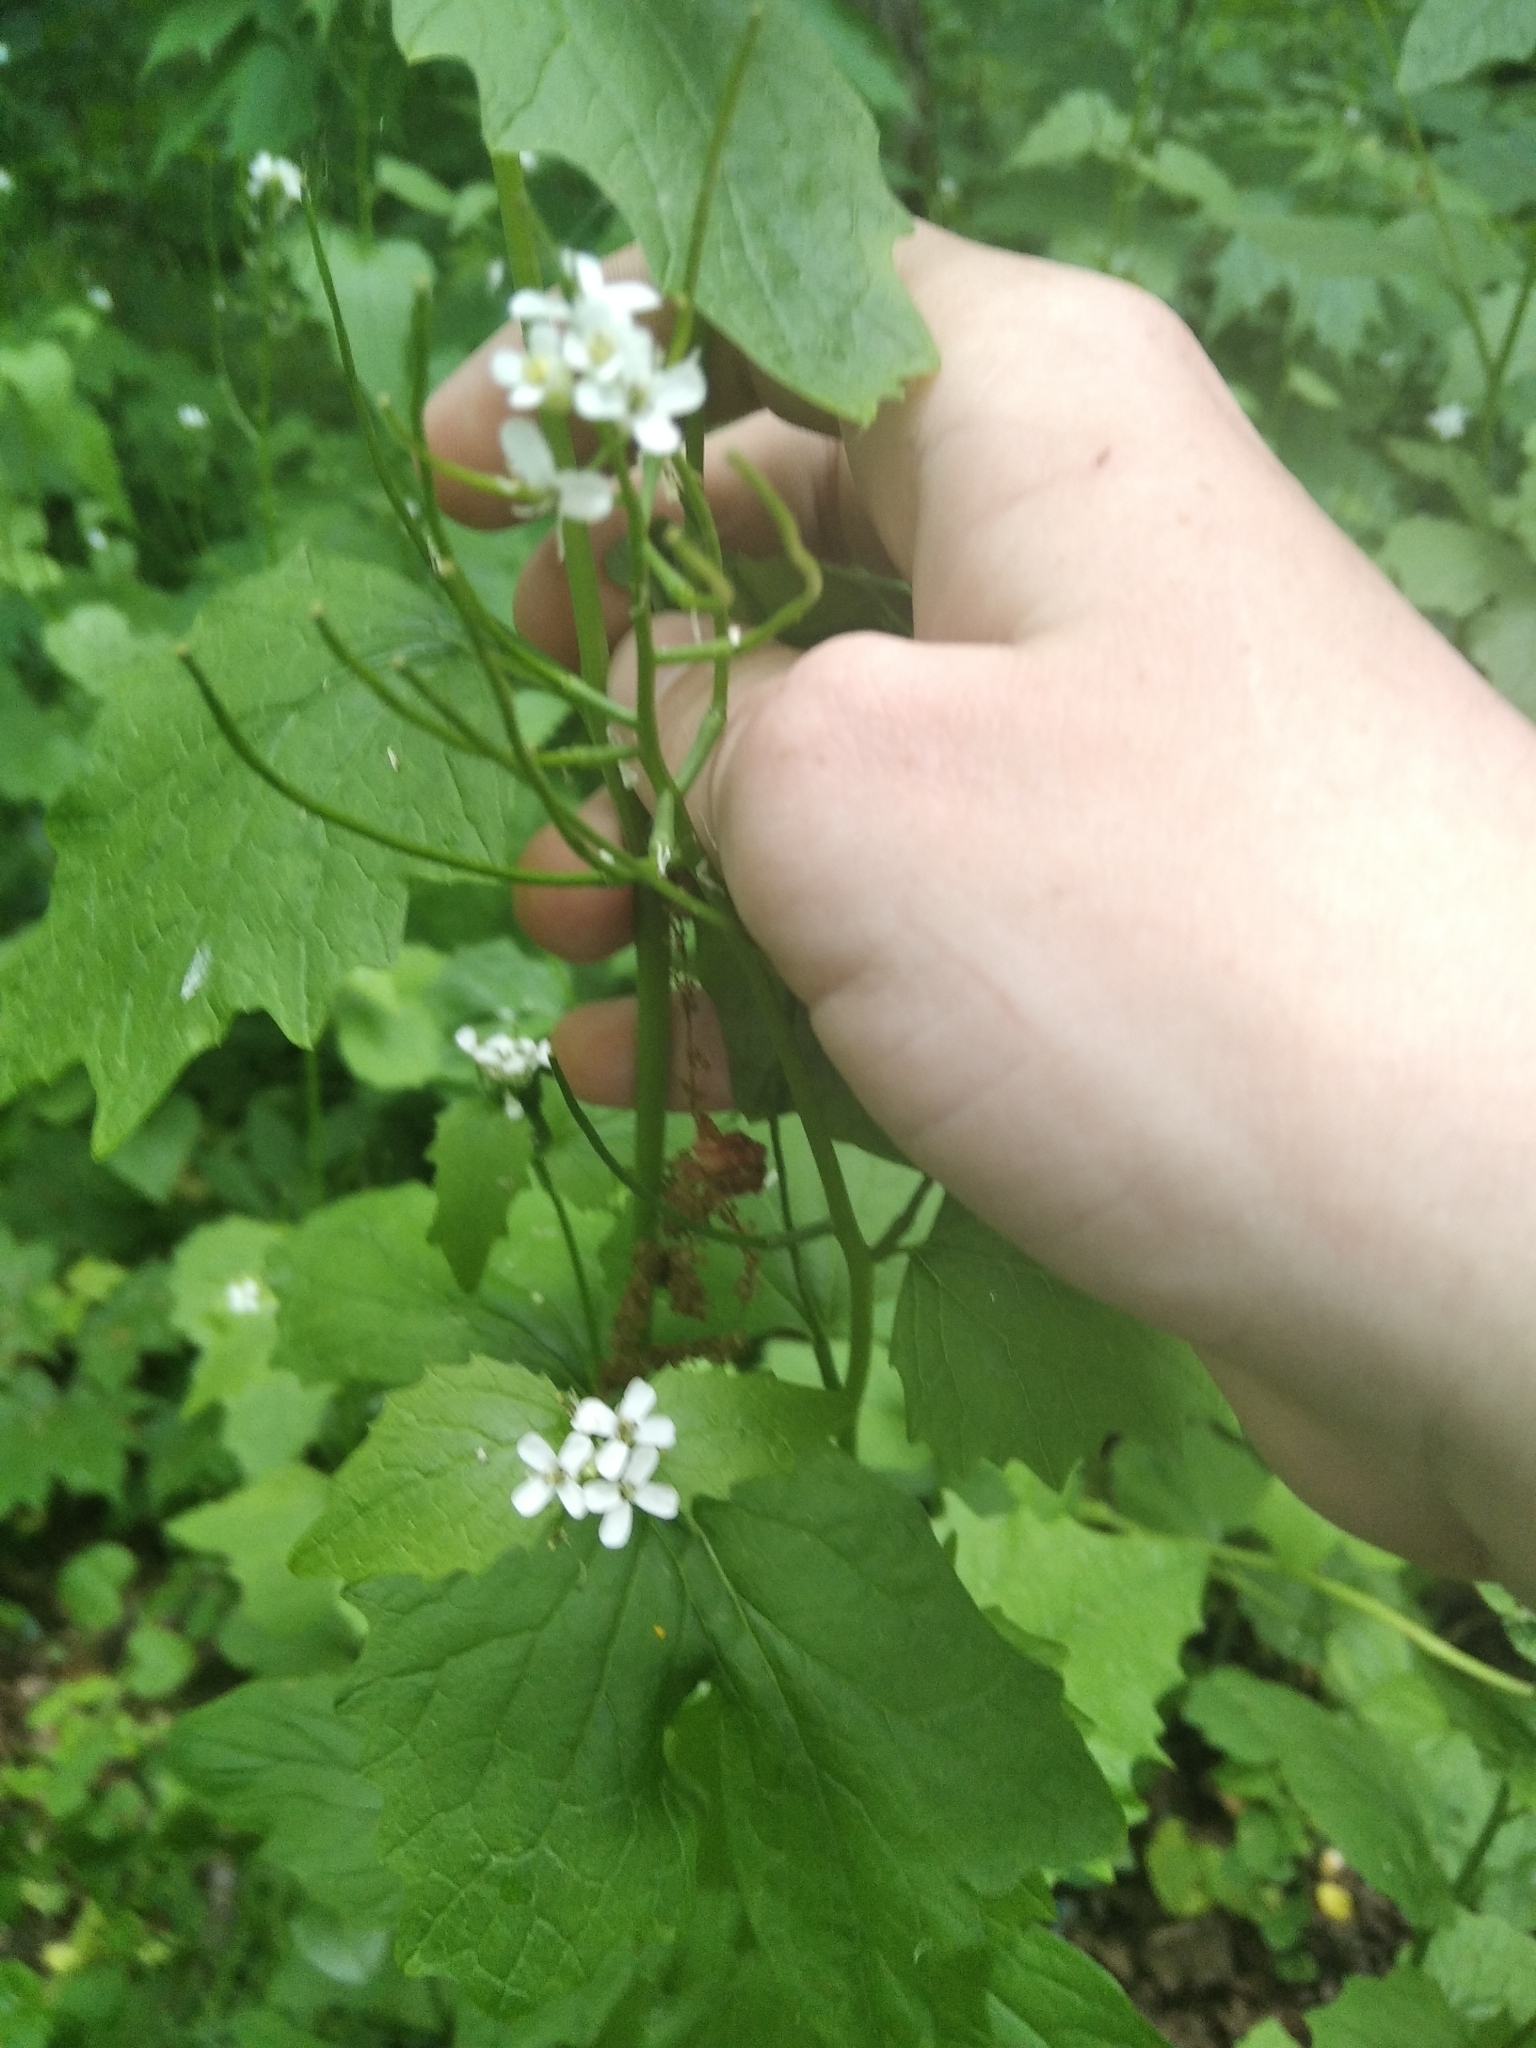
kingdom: Plantae
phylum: Tracheophyta
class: Magnoliopsida
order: Brassicales
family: Brassicaceae
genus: Alliaria
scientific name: Alliaria petiolata
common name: Garlic mustard
